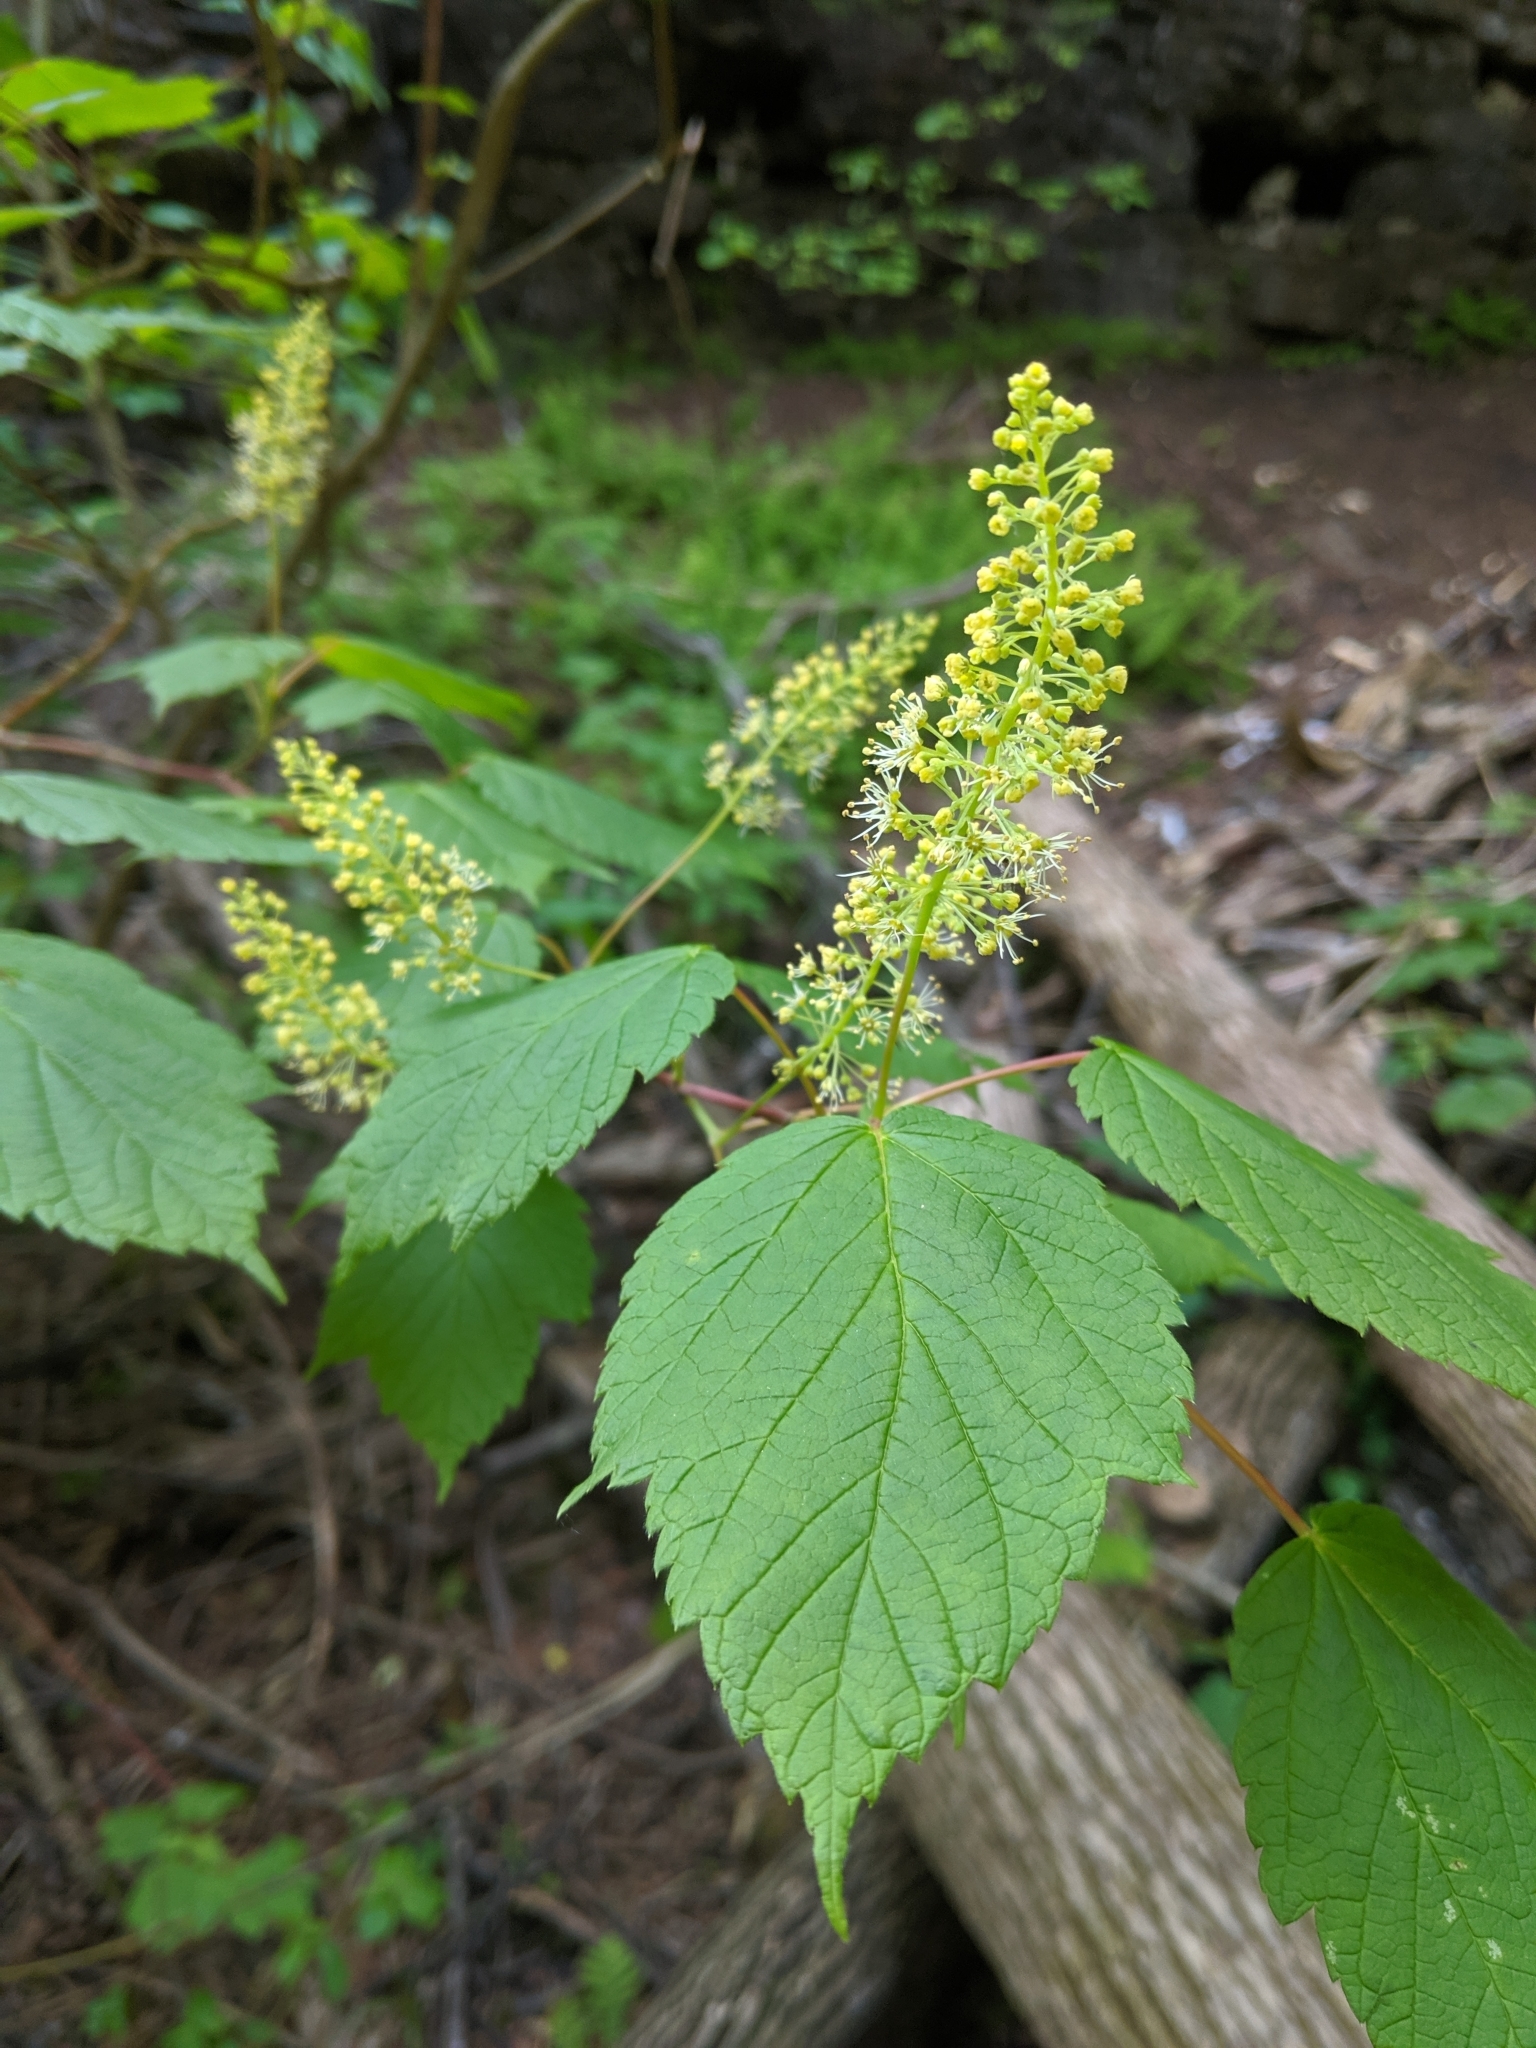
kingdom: Plantae
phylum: Tracheophyta
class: Magnoliopsida
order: Sapindales
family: Sapindaceae
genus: Acer
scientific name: Acer spicatum
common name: Mountain maple
